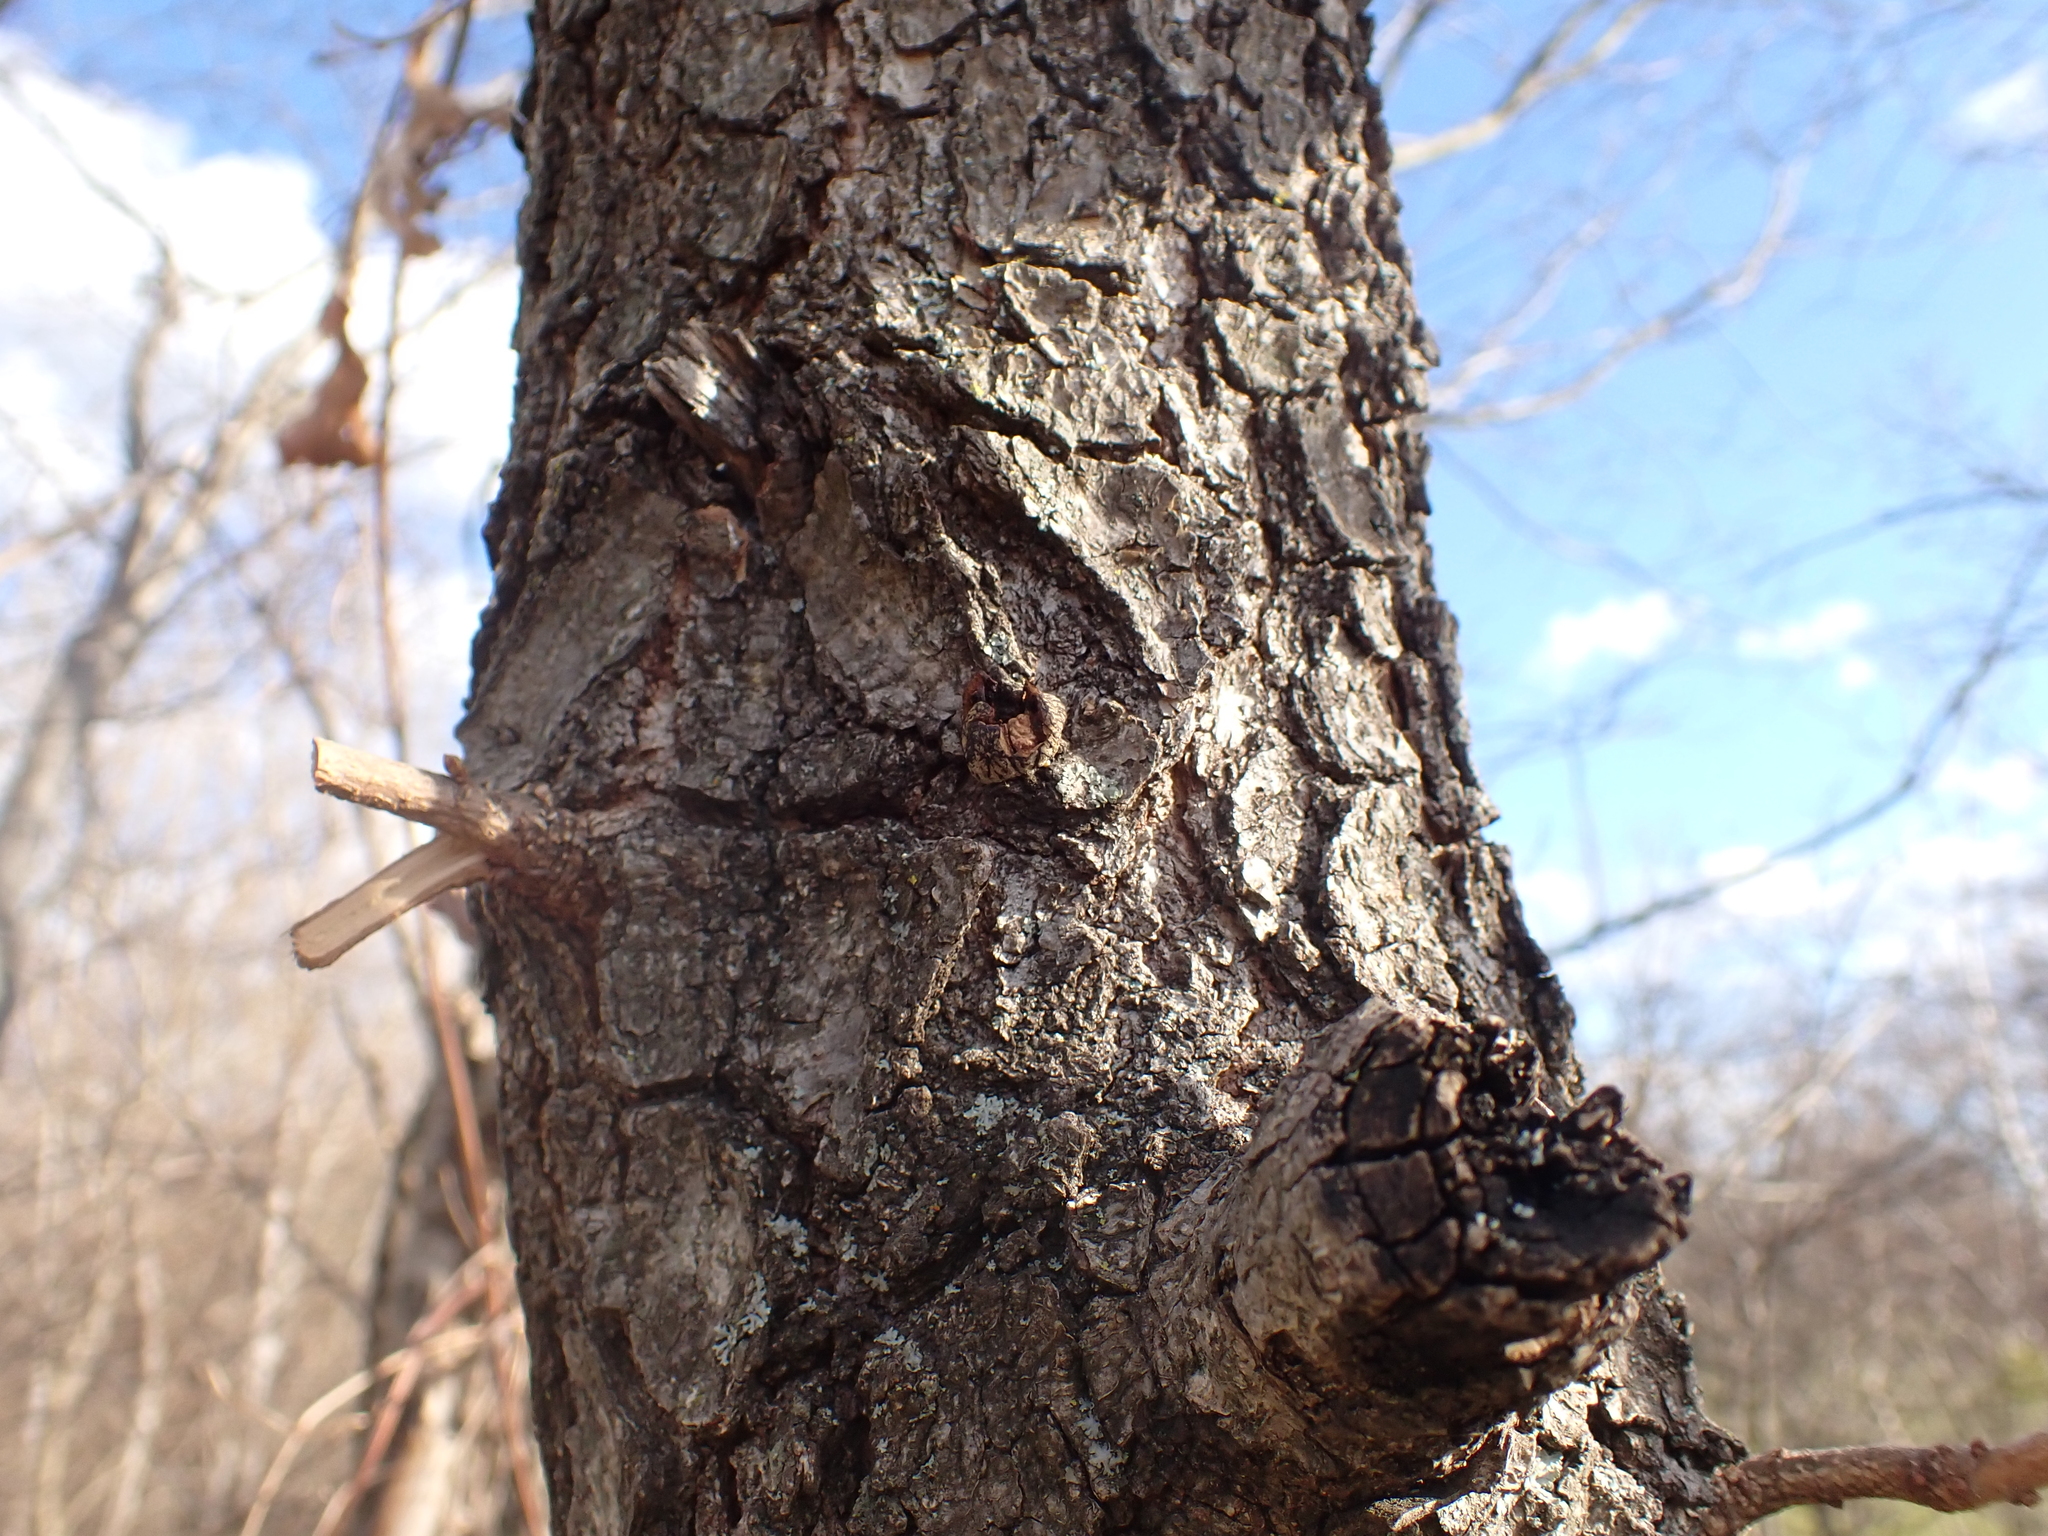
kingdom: Animalia
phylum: Arthropoda
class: Insecta
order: Hymenoptera
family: Cynipidae
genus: Andricus
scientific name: Andricus conificus
